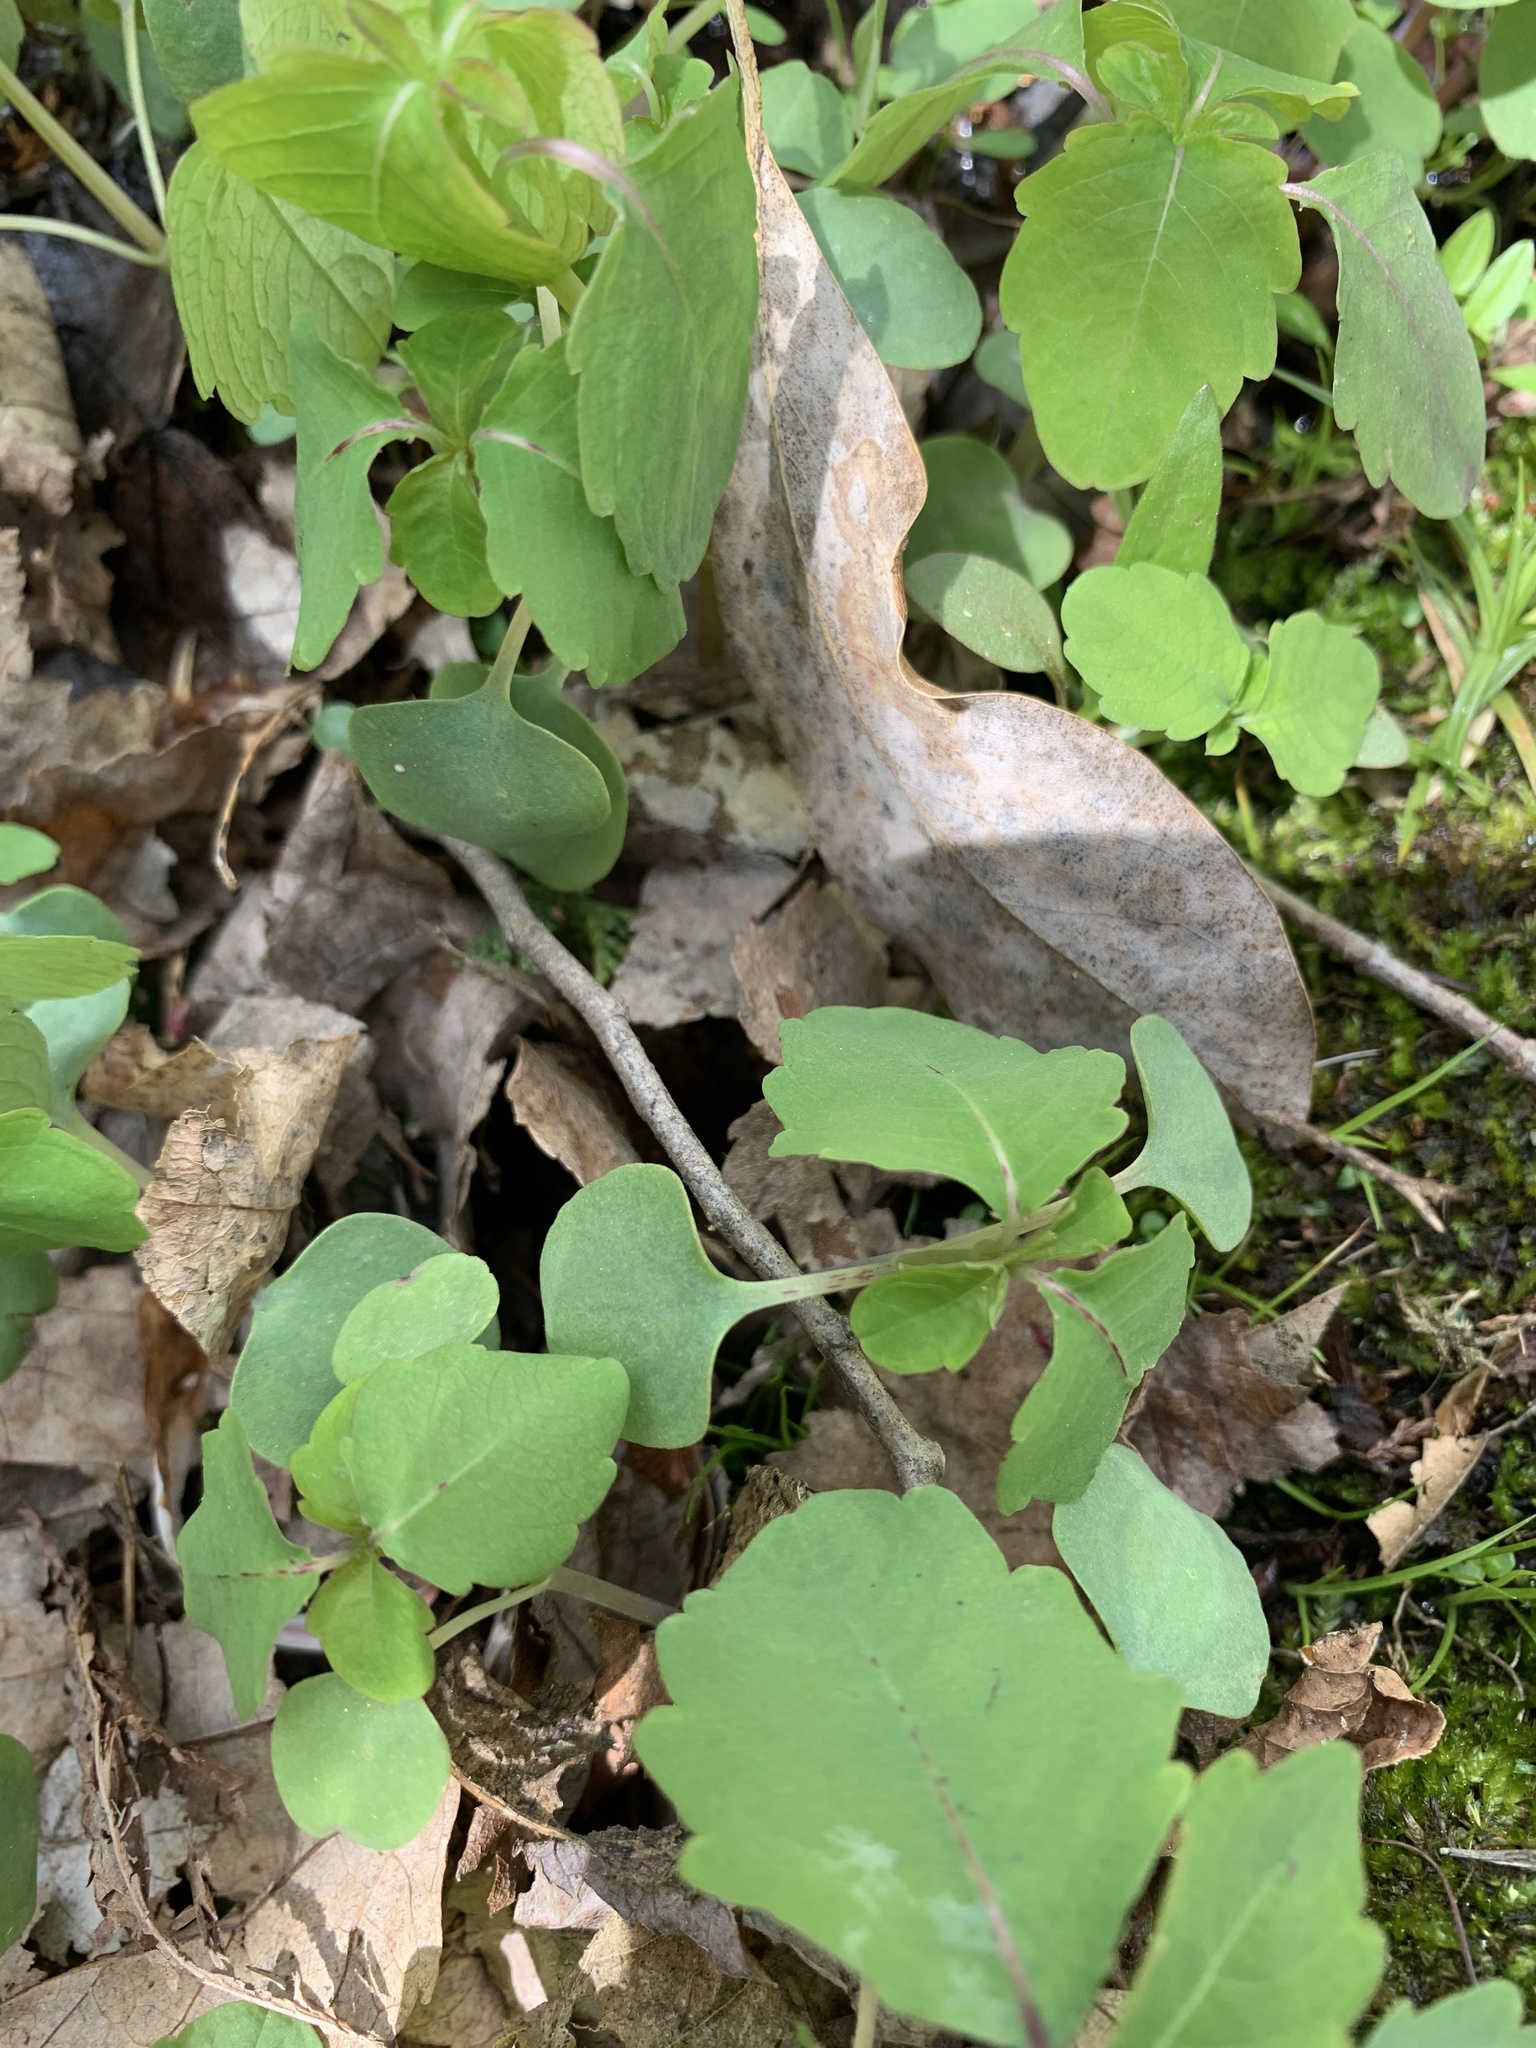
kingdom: Plantae
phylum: Tracheophyta
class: Magnoliopsida
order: Ericales
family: Balsaminaceae
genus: Impatiens
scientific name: Impatiens capensis
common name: Orange balsam
